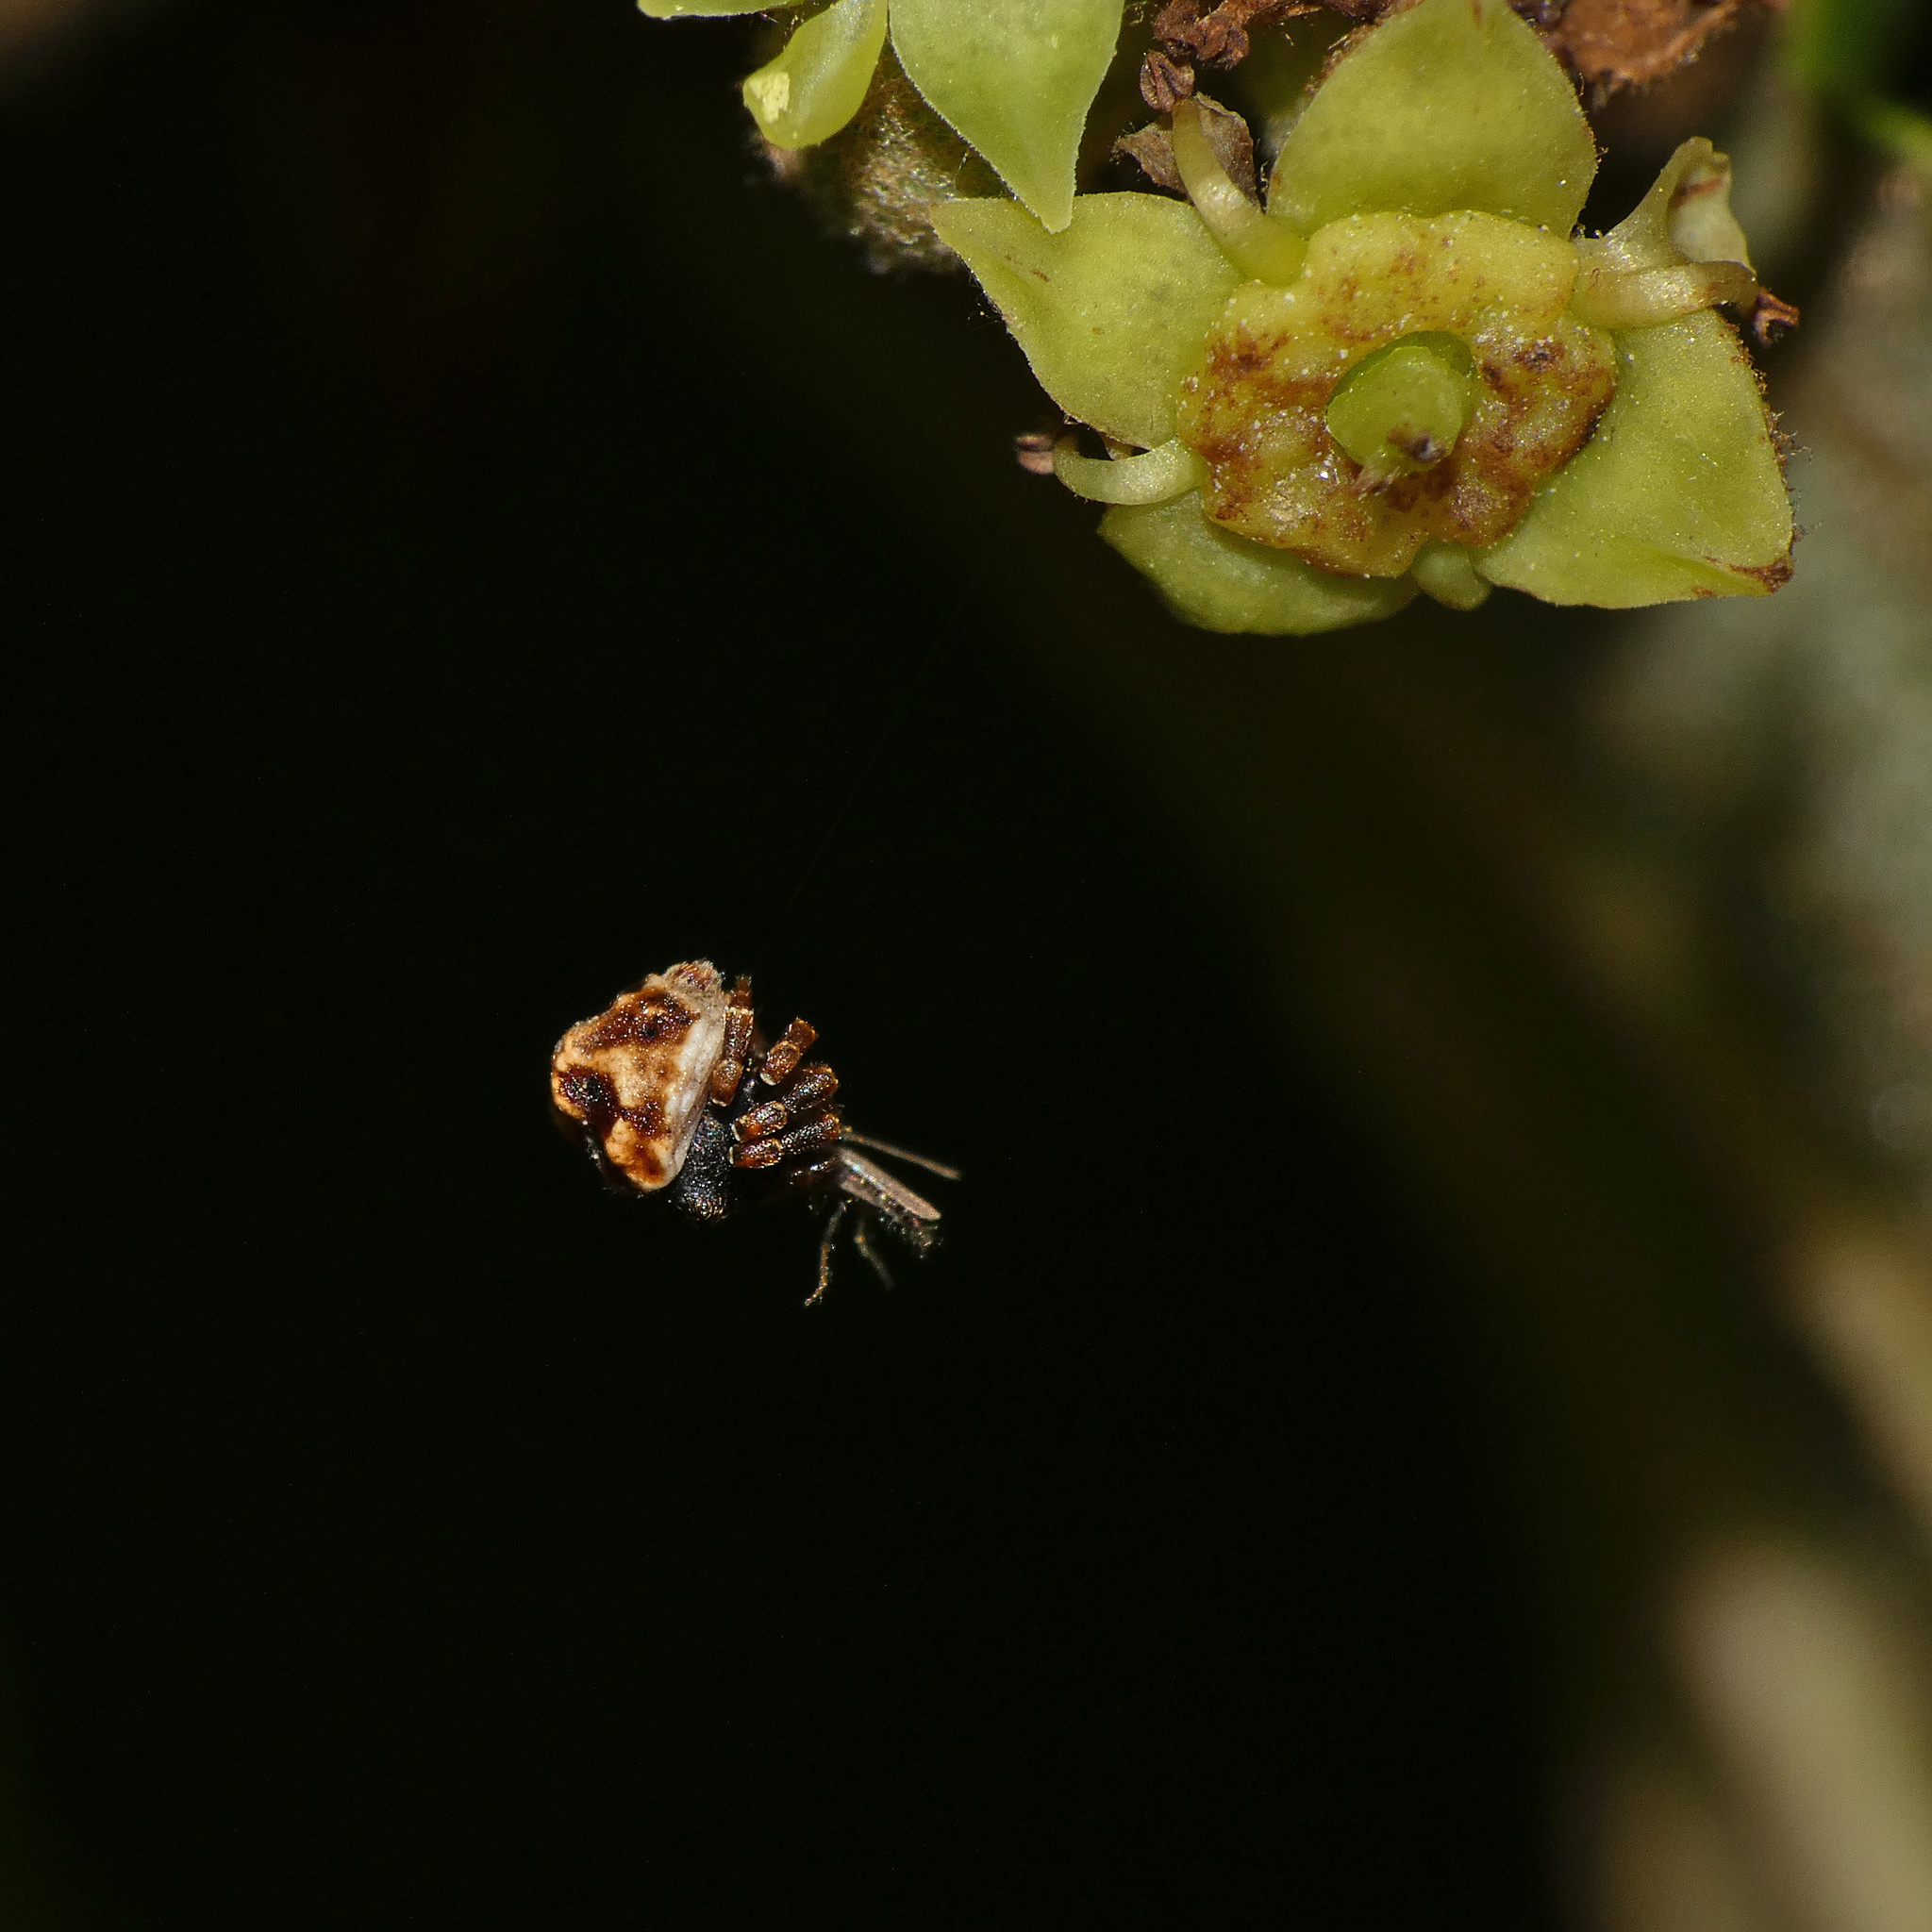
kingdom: Animalia
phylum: Arthropoda
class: Arachnida
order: Araneae
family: Thomisidae
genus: Parabomis
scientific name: Parabomis megae
